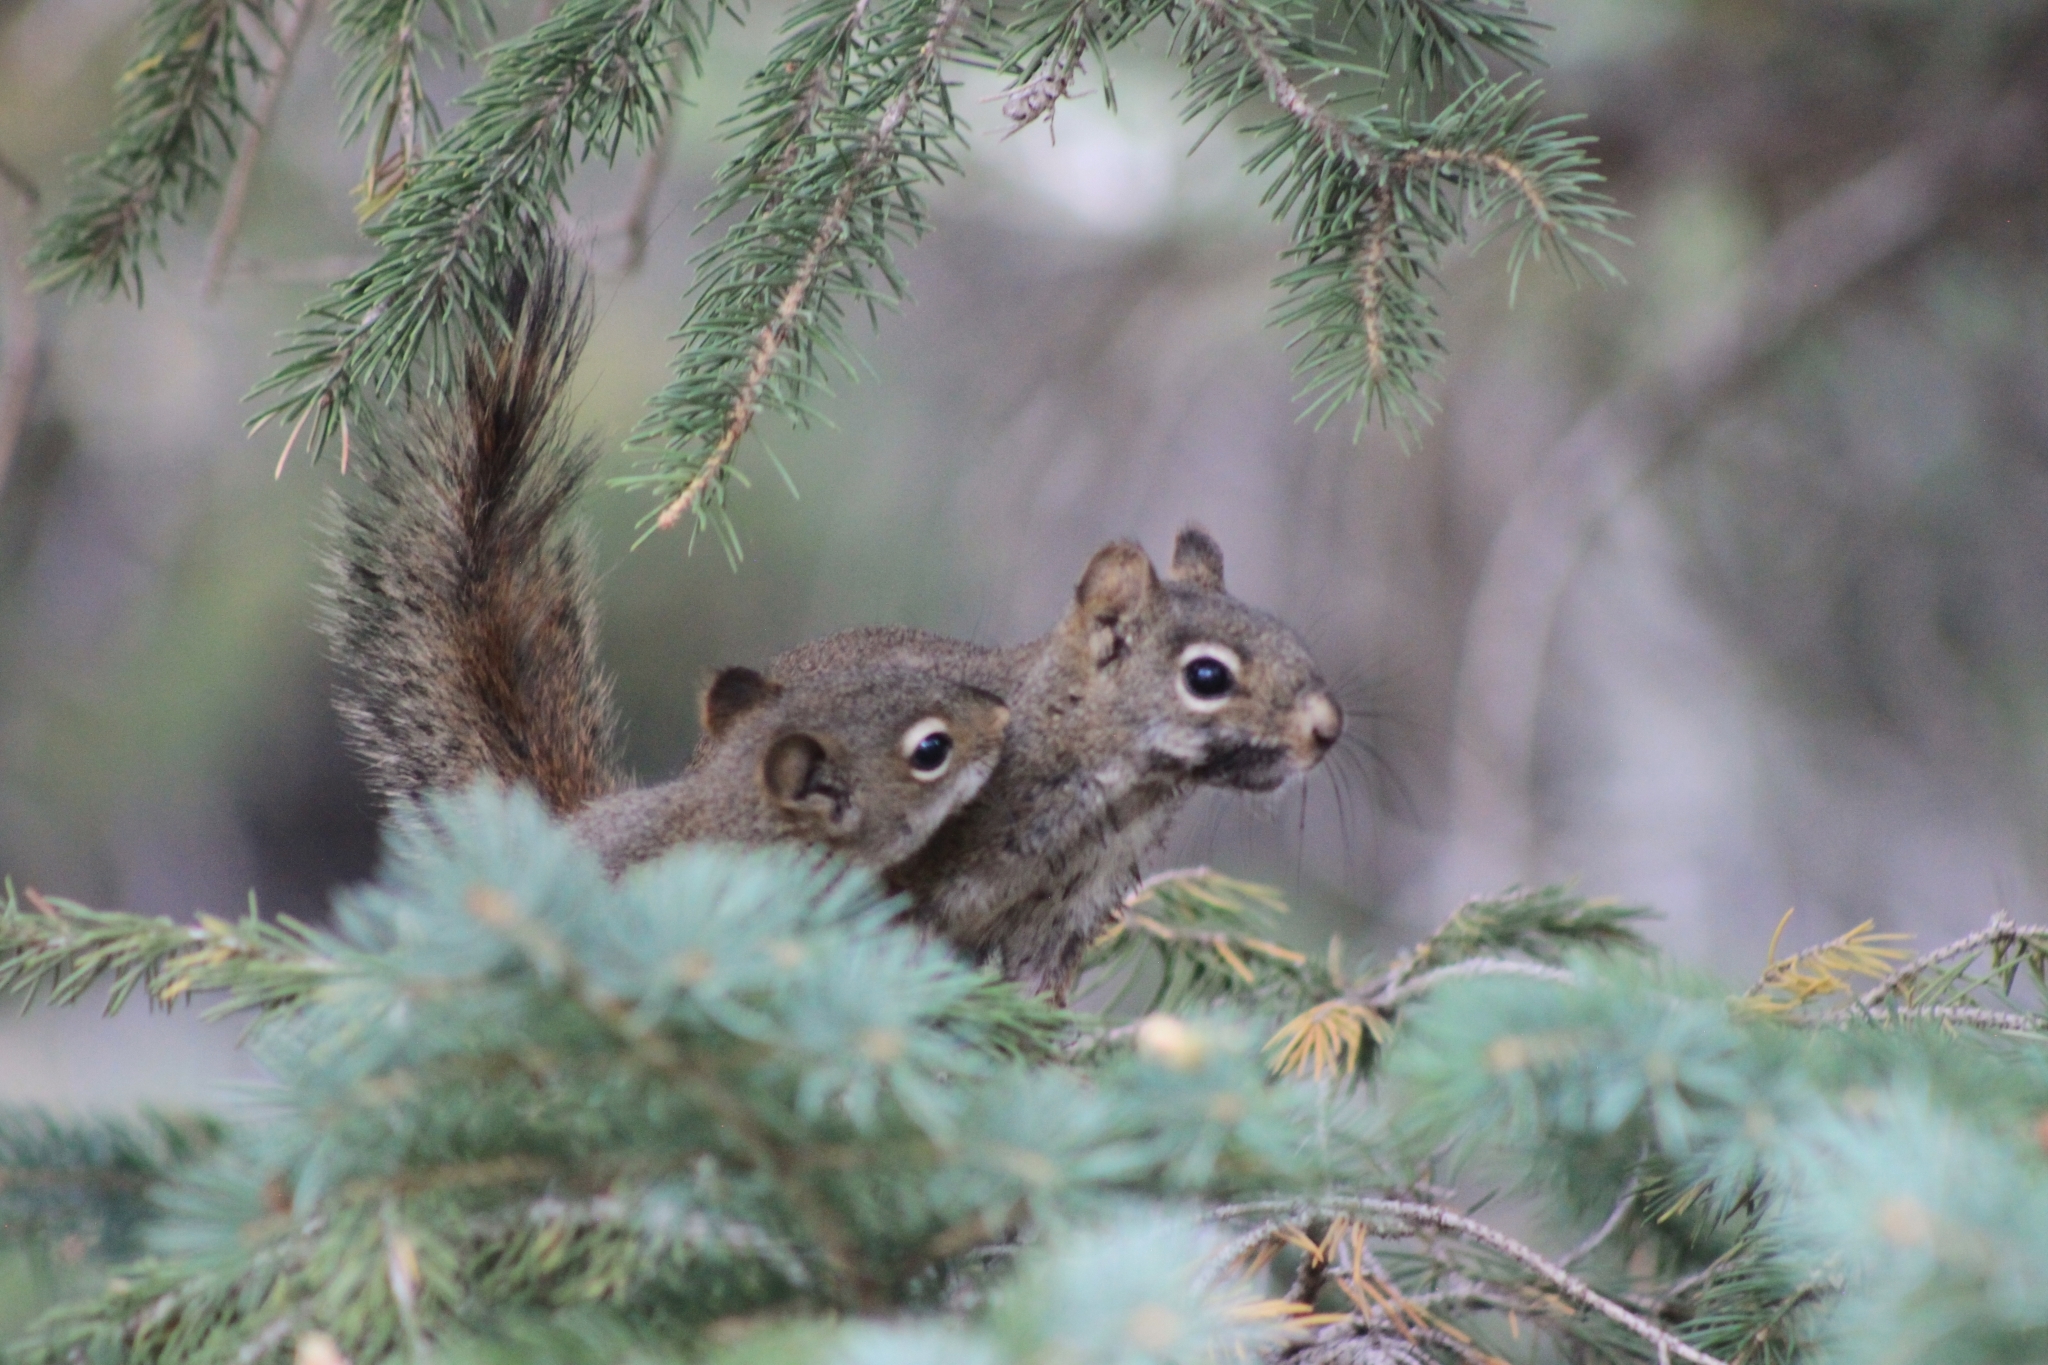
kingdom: Animalia
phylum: Chordata
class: Mammalia
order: Rodentia
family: Sciuridae
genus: Tamiasciurus
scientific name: Tamiasciurus hudsonicus
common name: Red squirrel
